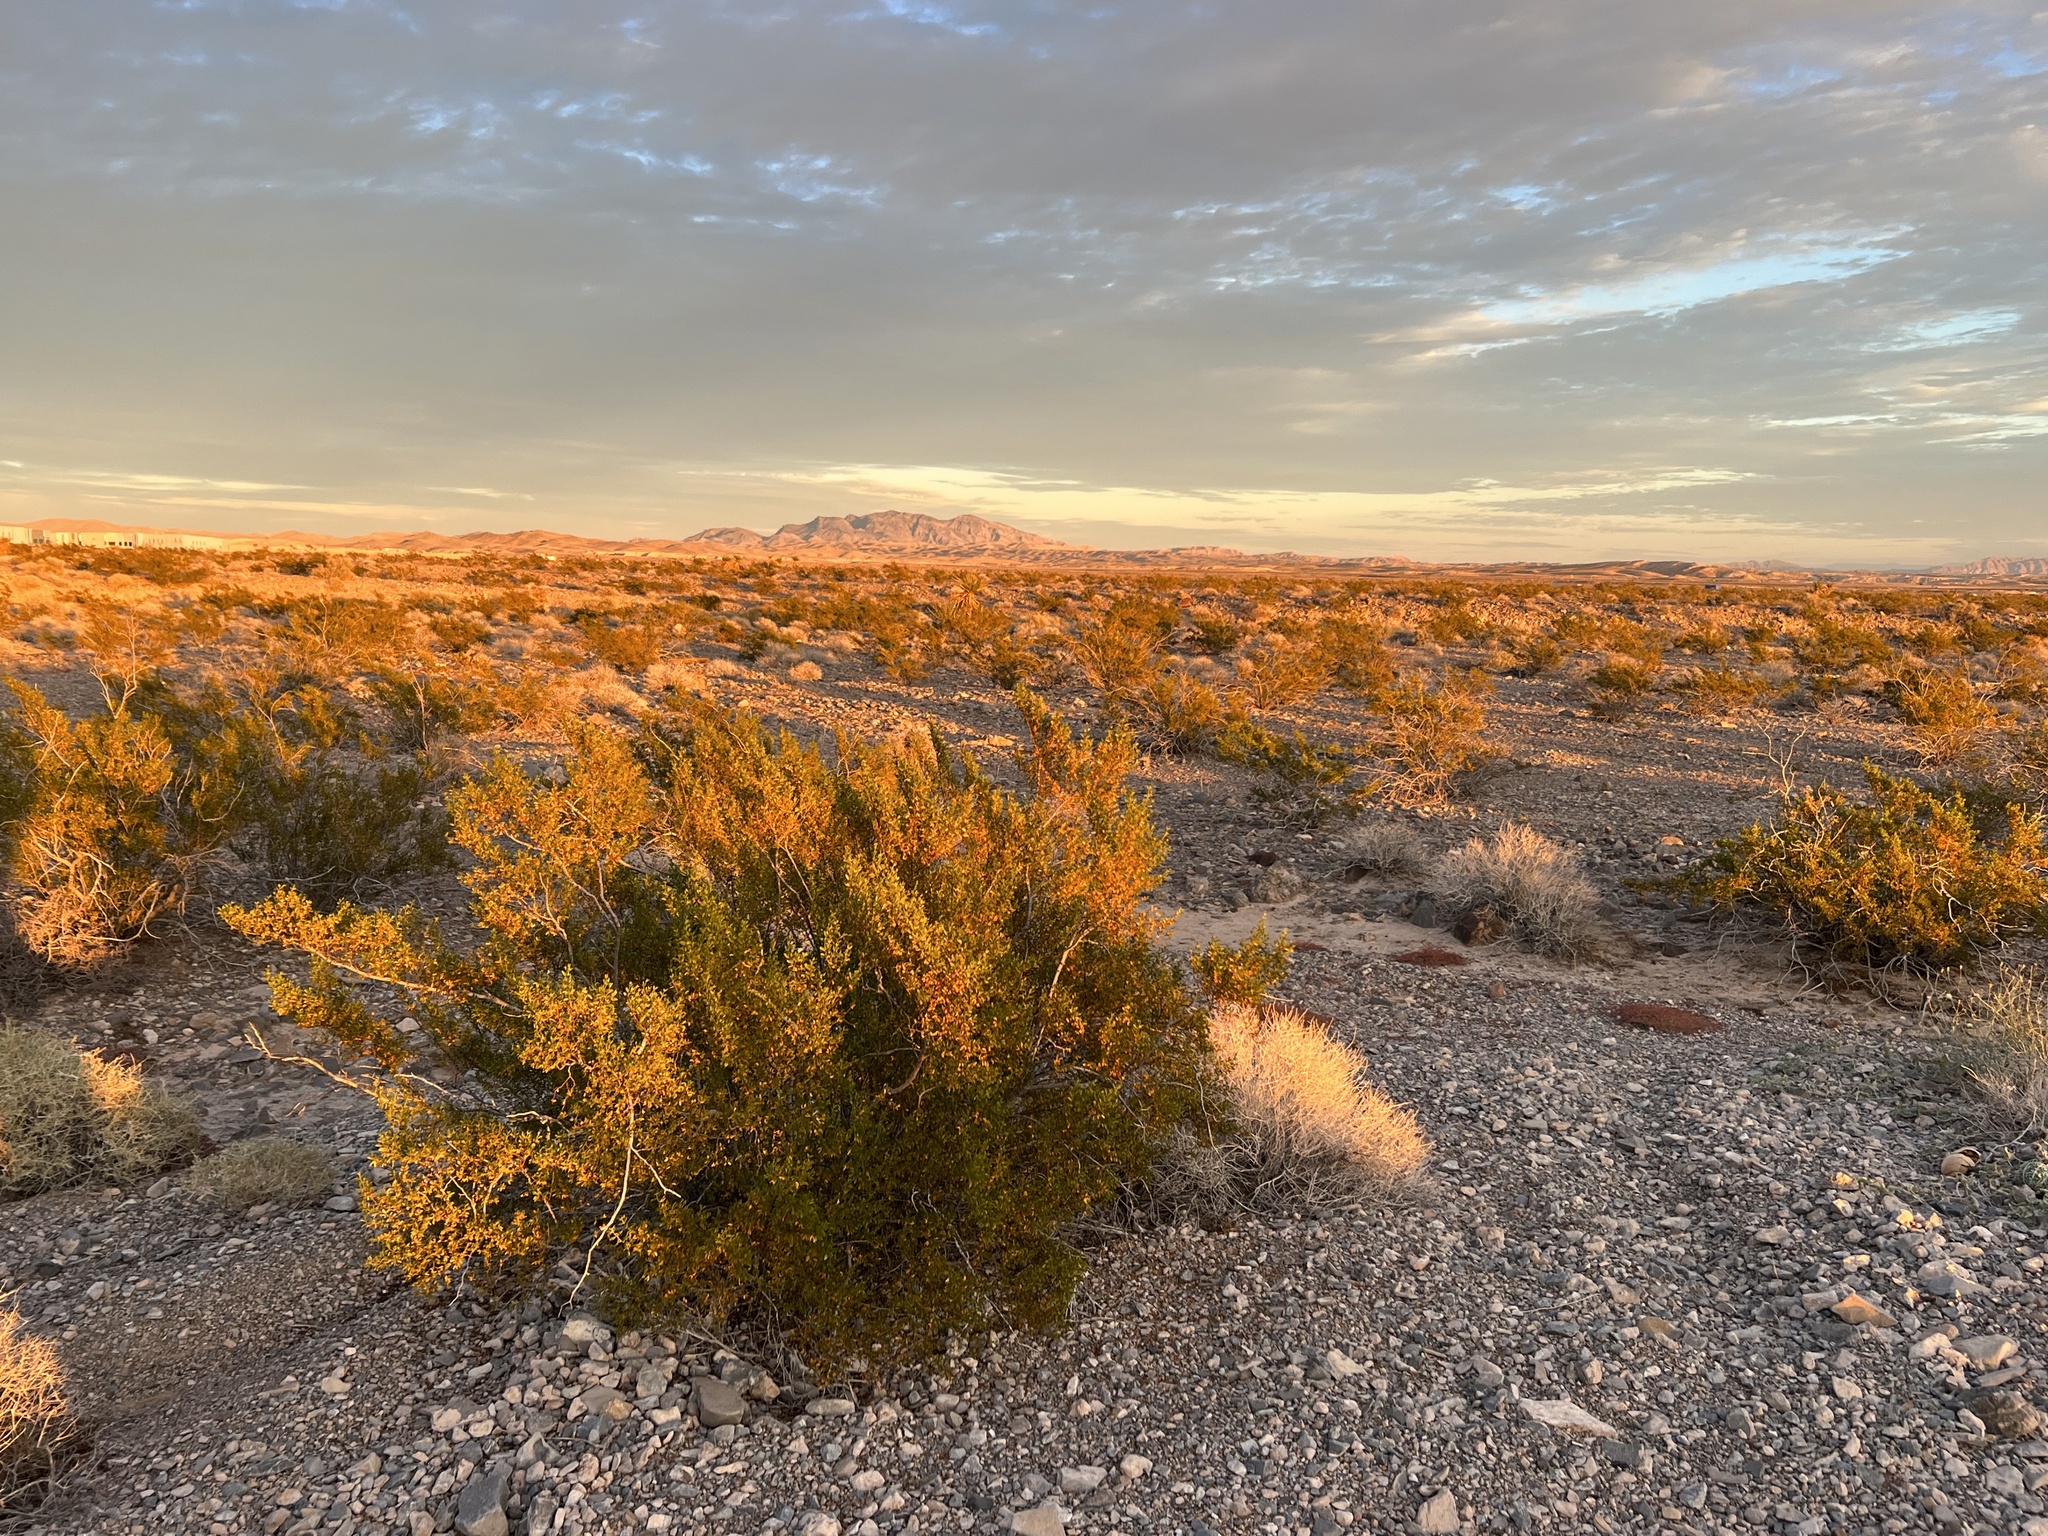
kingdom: Plantae
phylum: Tracheophyta
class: Magnoliopsida
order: Zygophyllales
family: Zygophyllaceae
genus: Larrea
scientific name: Larrea tridentata
